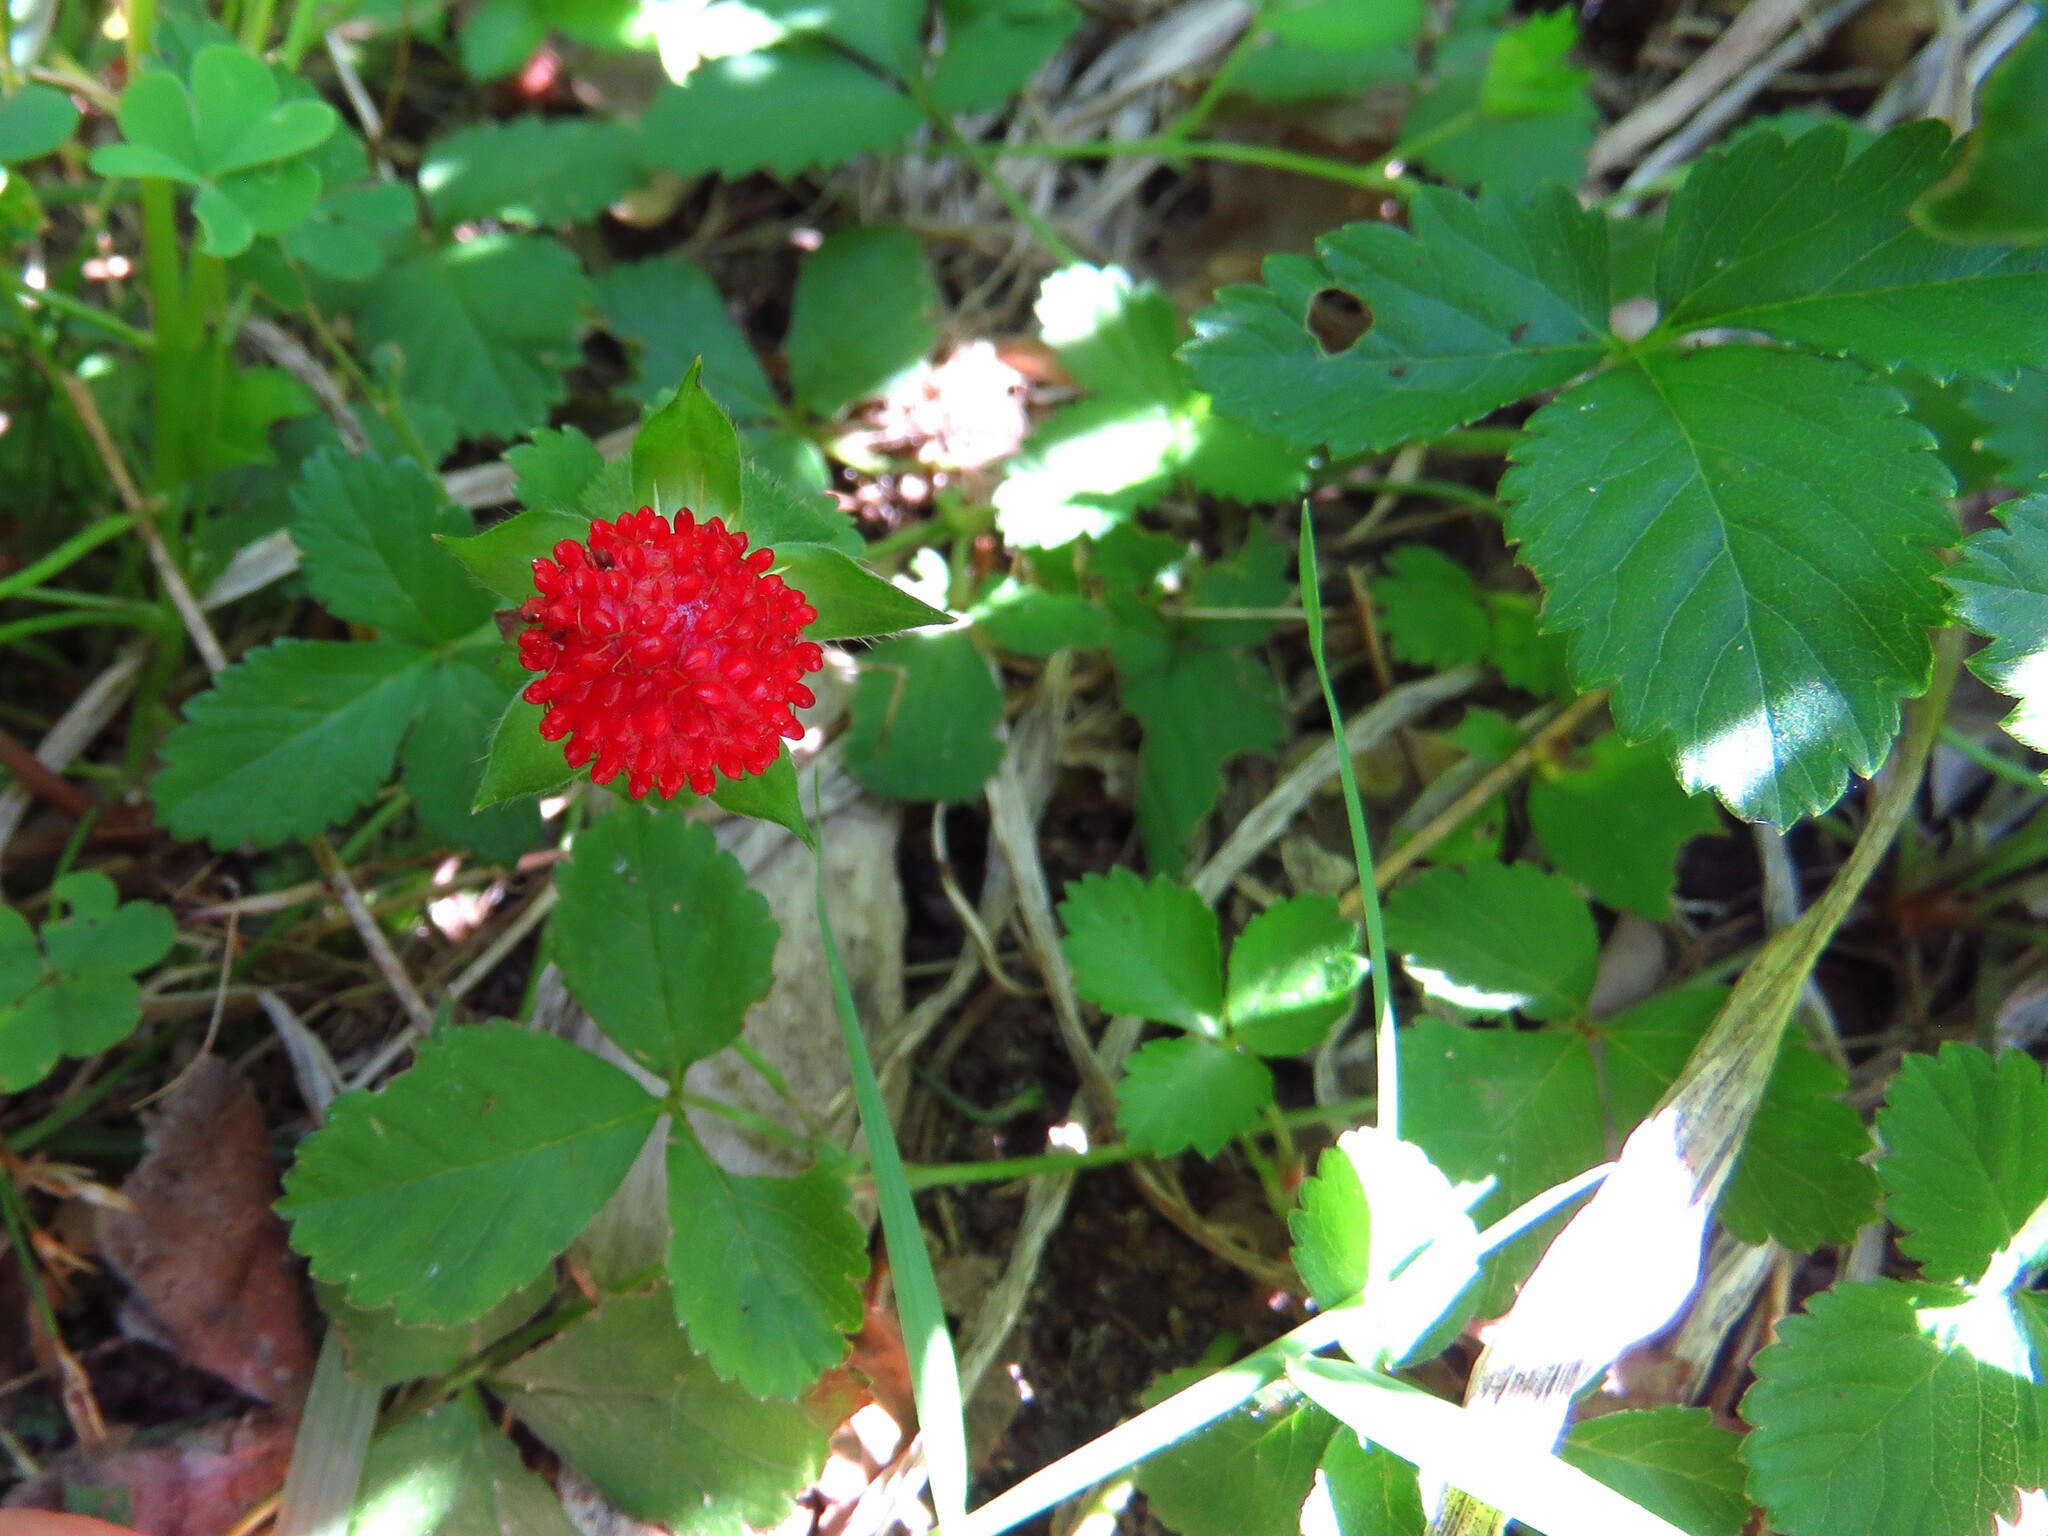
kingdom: Plantae
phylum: Tracheophyta
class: Magnoliopsida
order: Rosales
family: Rosaceae
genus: Potentilla
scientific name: Potentilla indica
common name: Yellow-flowered strawberry
